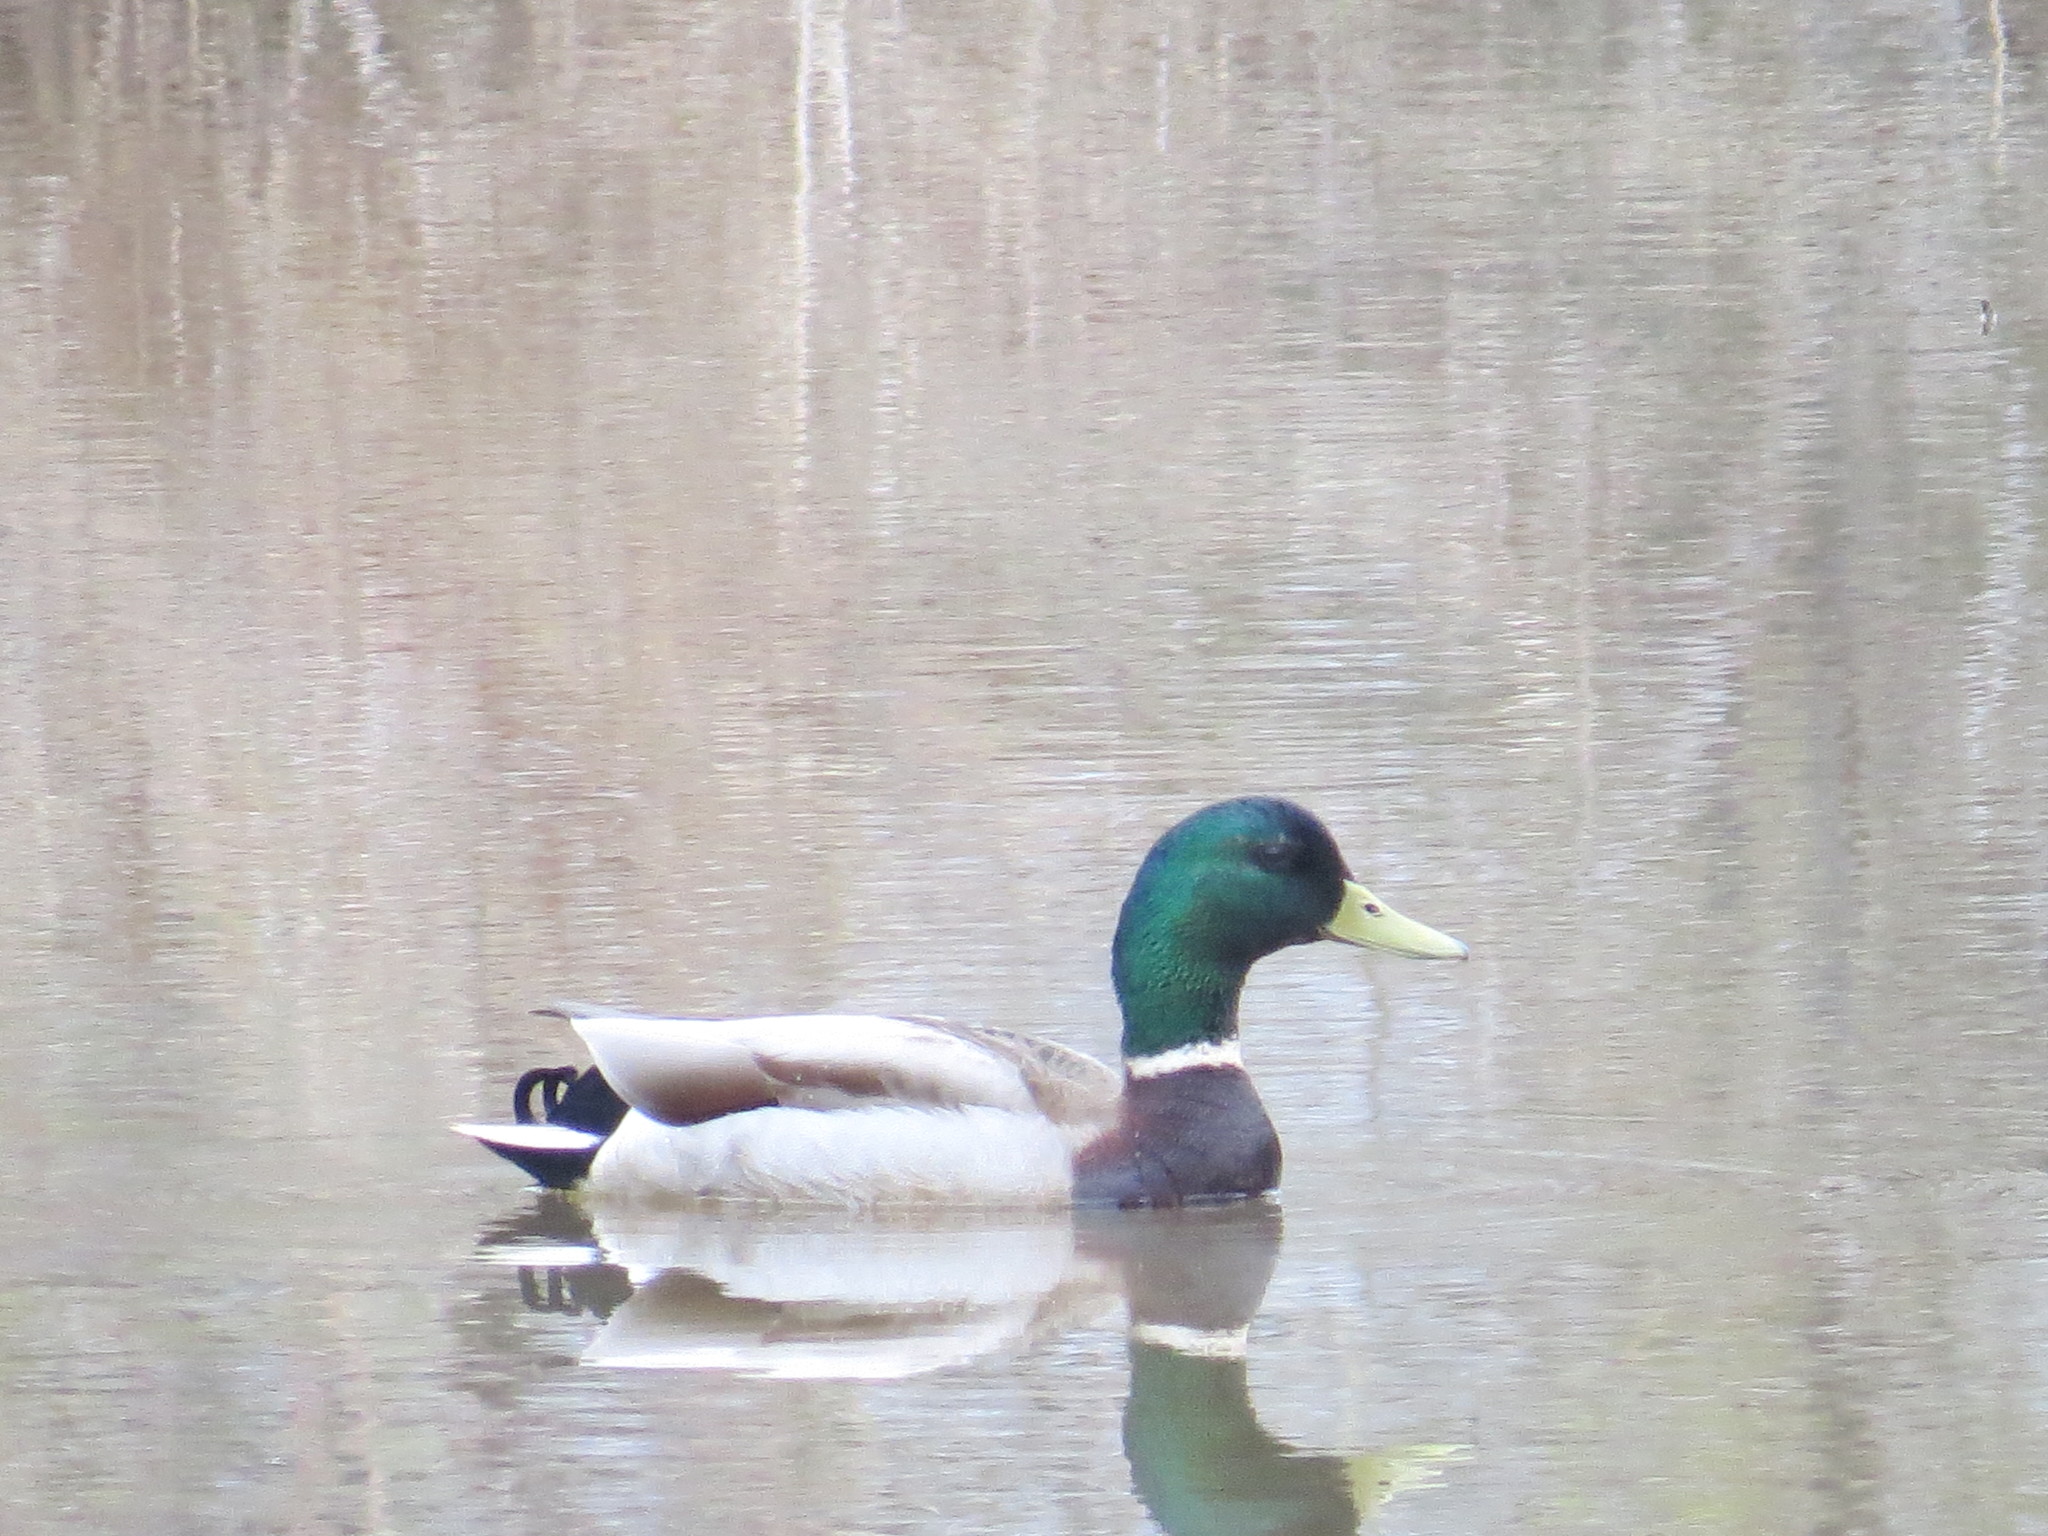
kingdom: Animalia
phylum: Chordata
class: Aves
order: Anseriformes
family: Anatidae
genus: Anas
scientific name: Anas platyrhynchos
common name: Mallard
